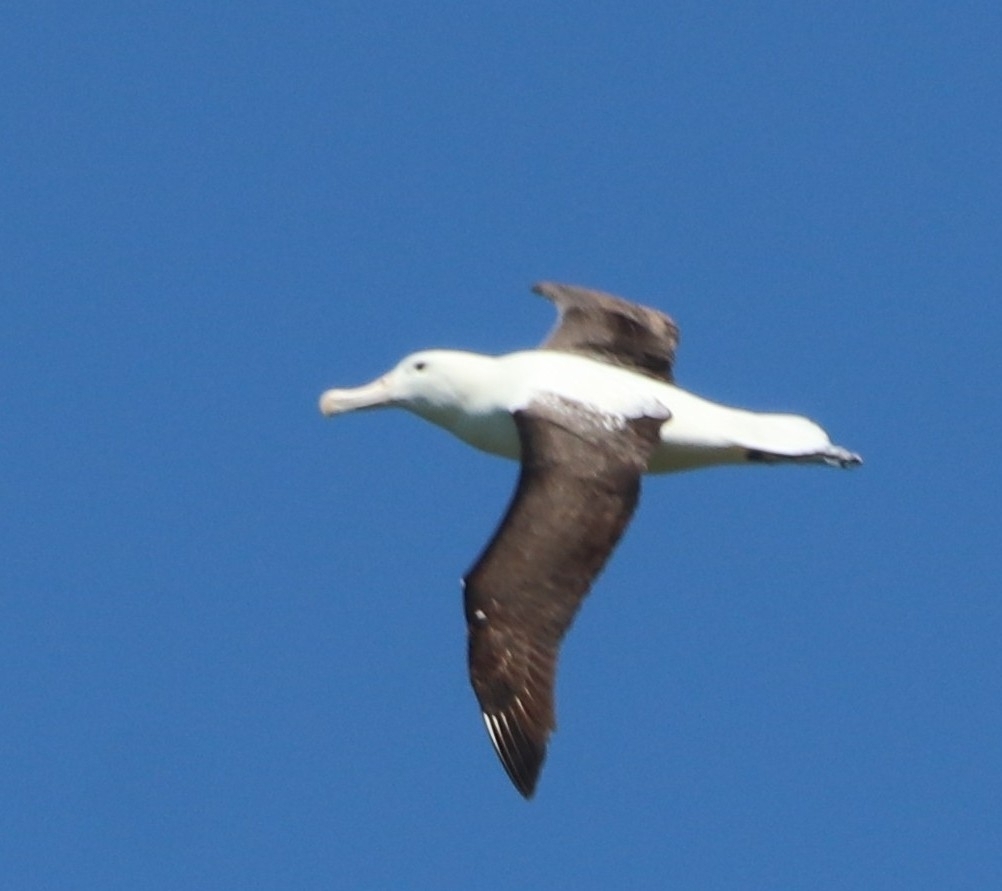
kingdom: Animalia
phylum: Chordata
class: Aves
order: Procellariiformes
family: Diomedeidae
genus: Diomedea
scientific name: Diomedea sanfordi
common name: Northern royal albatross
